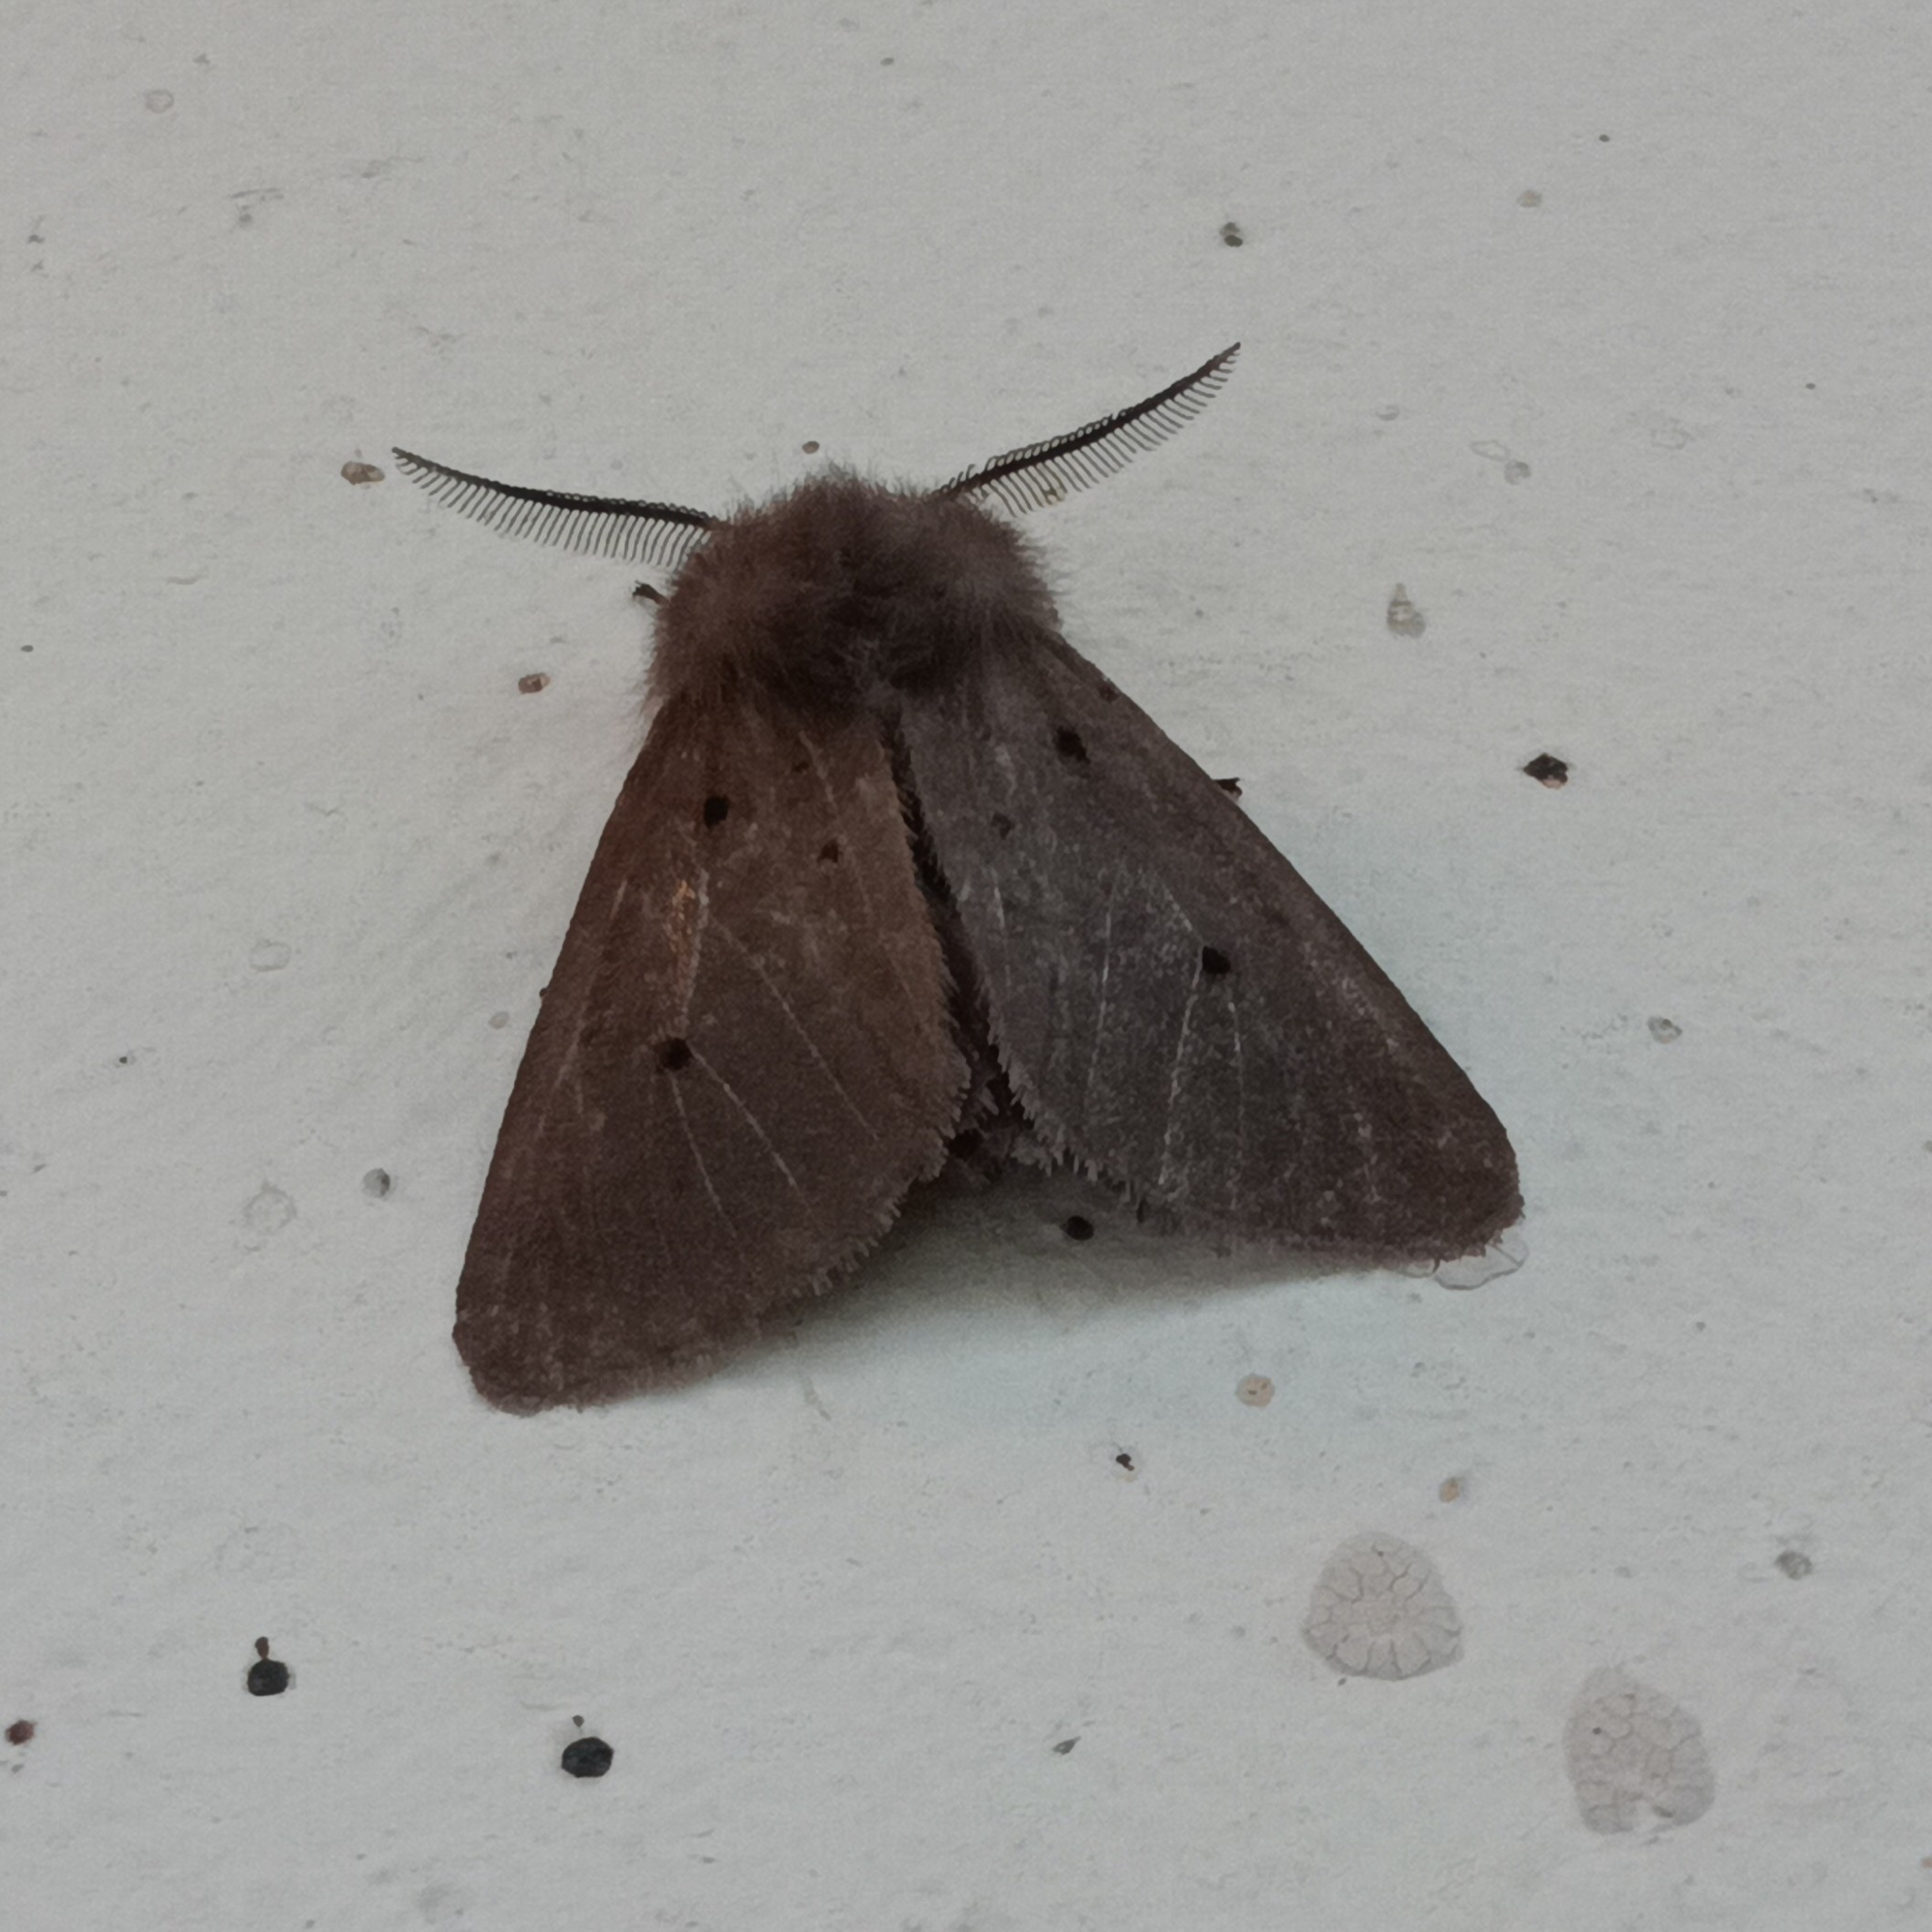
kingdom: Animalia
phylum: Arthropoda
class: Insecta
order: Lepidoptera
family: Erebidae
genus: Diaphora
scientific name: Diaphora mendica
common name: Muslin moth
